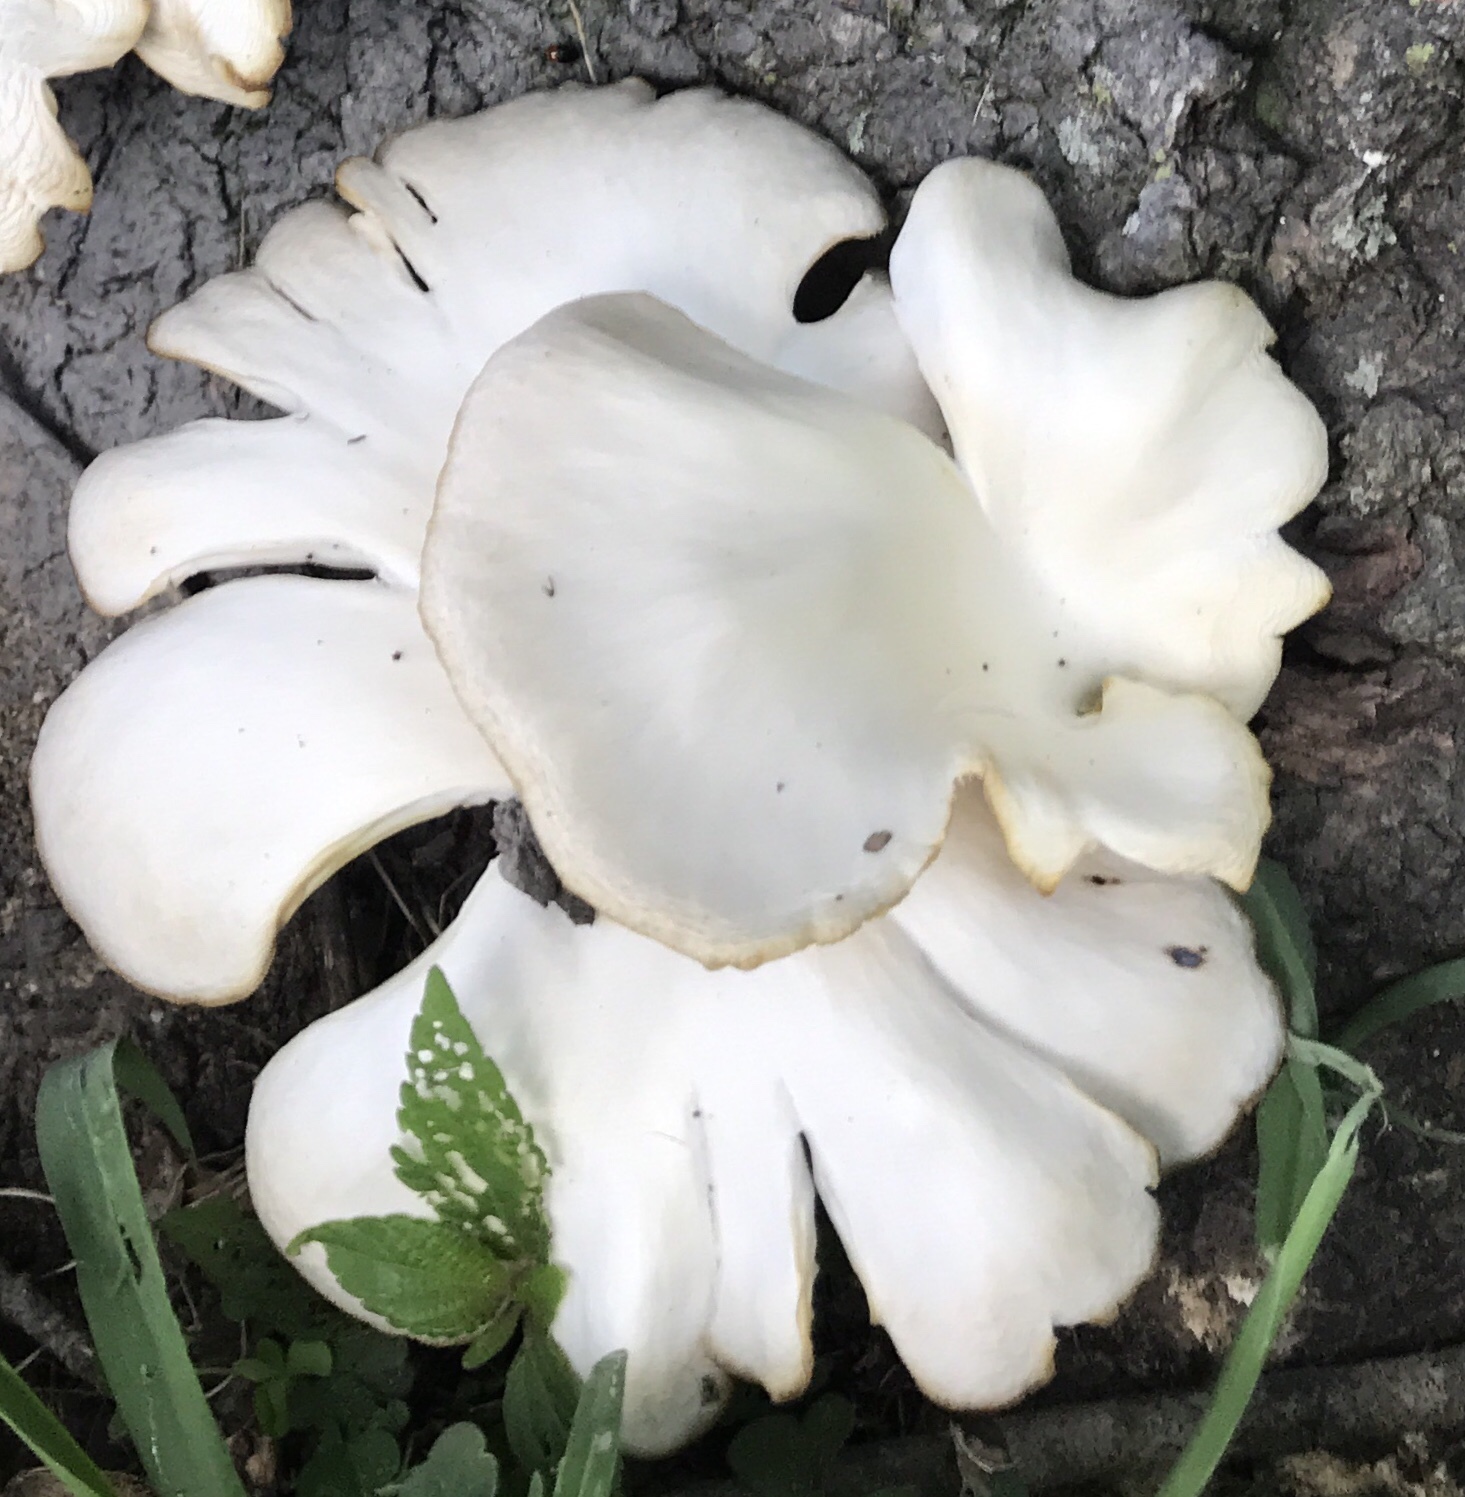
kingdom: Fungi
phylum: Basidiomycota
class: Agaricomycetes
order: Agaricales
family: Pleurotaceae
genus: Pleurotus
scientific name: Pleurotus pulmonarius
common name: Pale oyster
